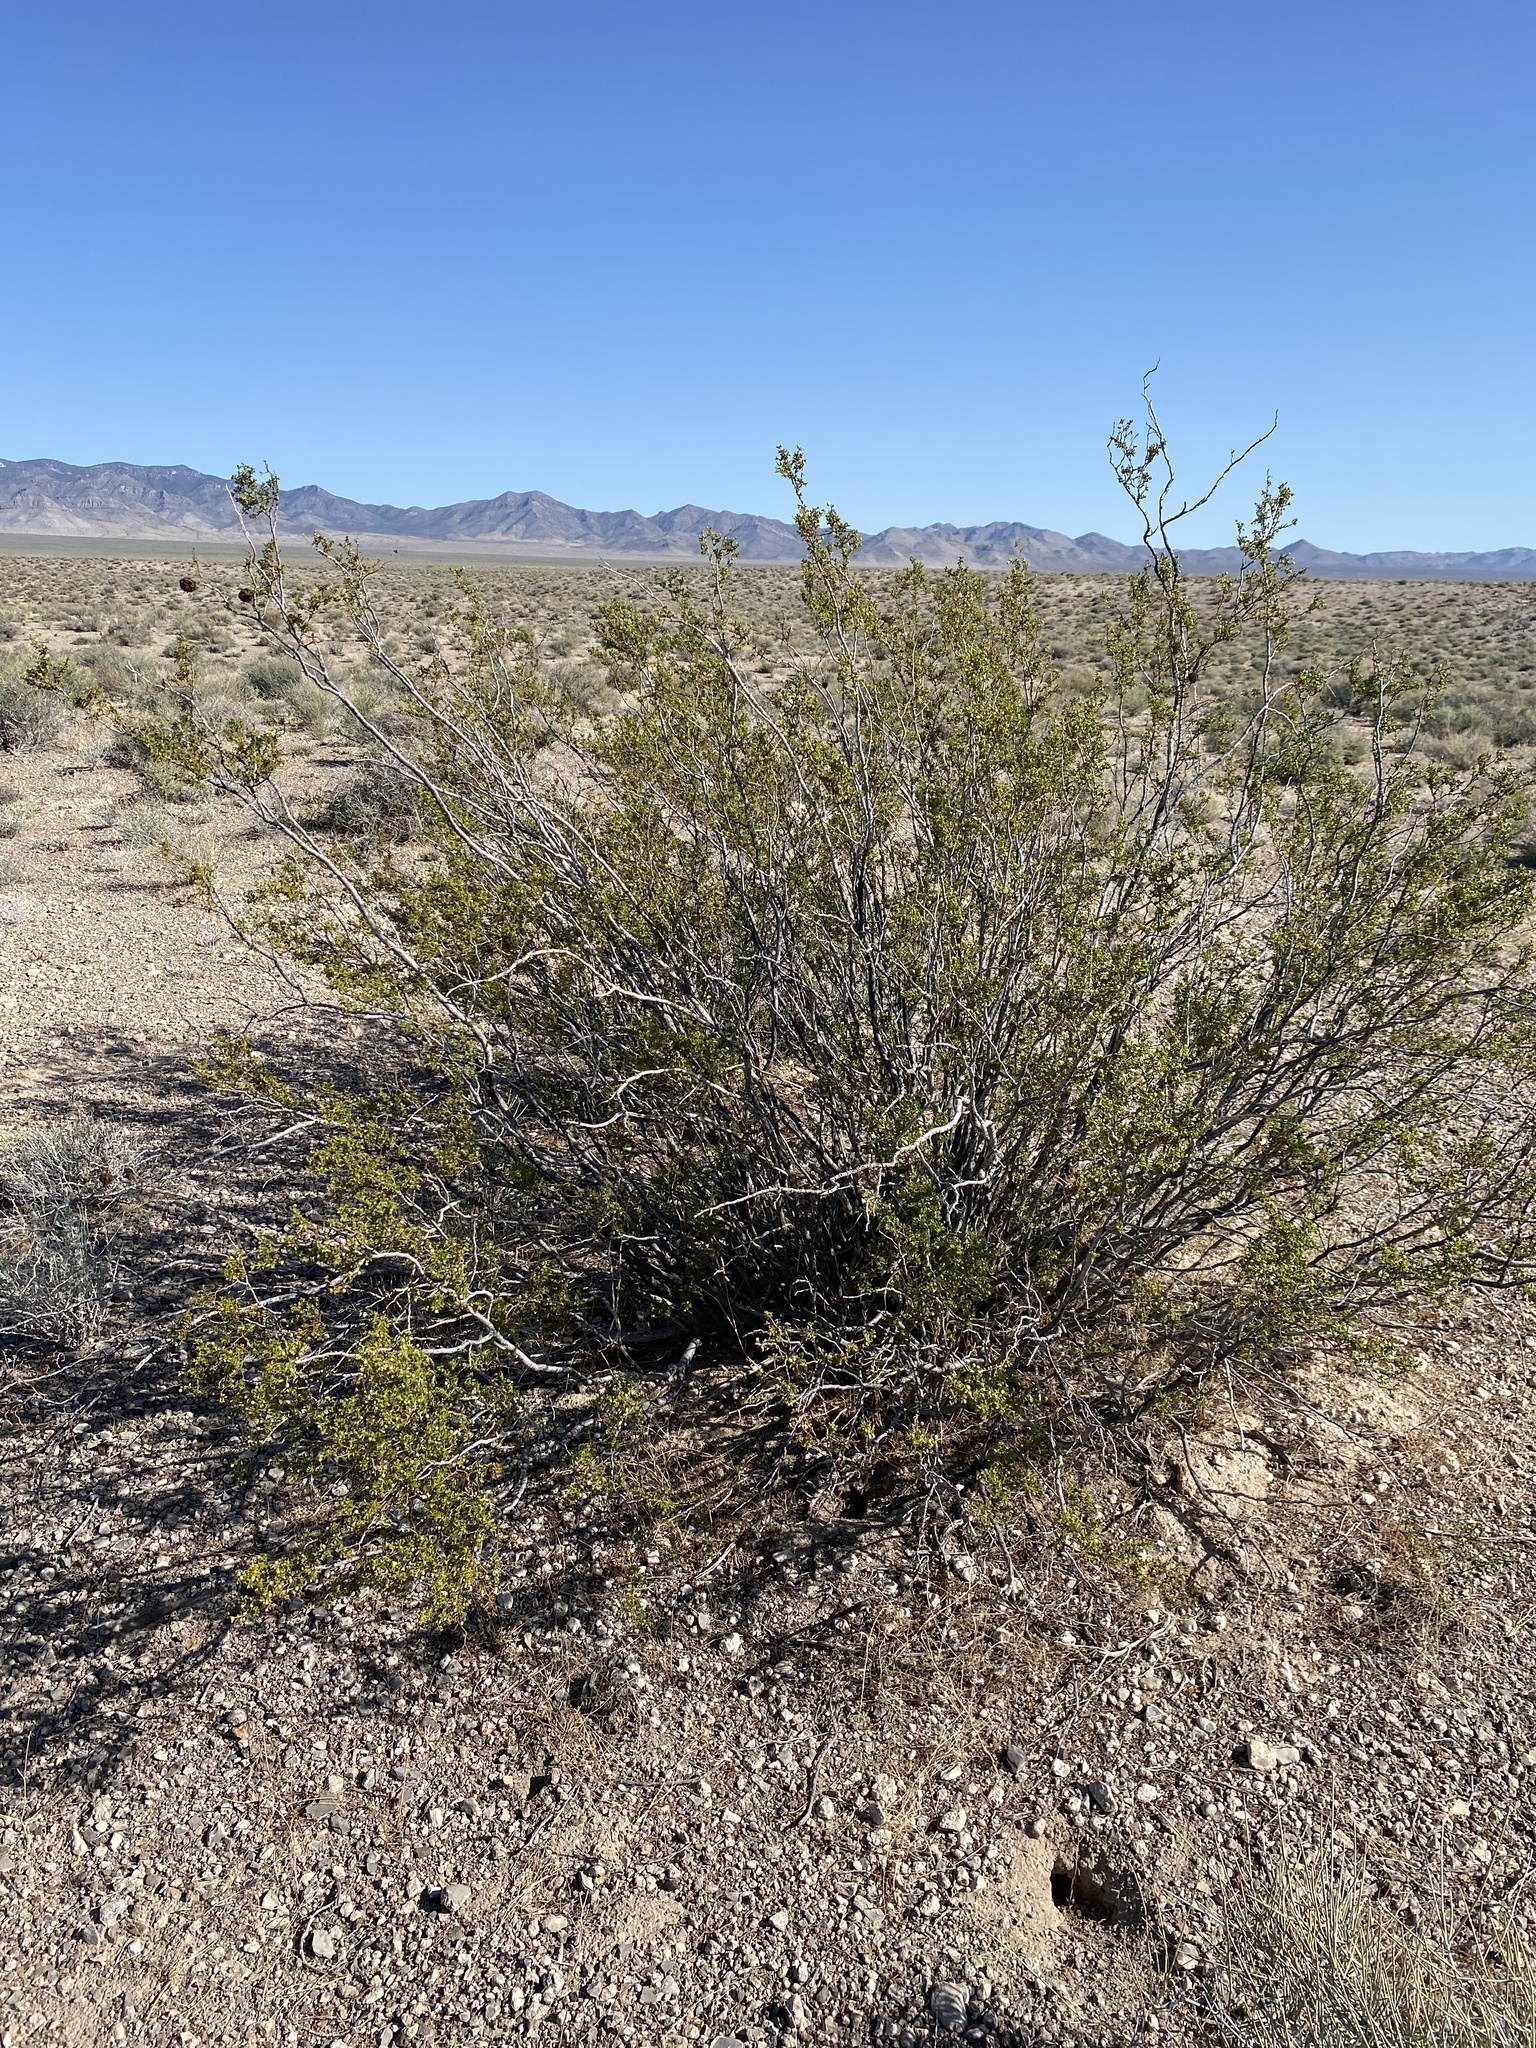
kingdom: Plantae
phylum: Tracheophyta
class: Magnoliopsida
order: Zygophyllales
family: Zygophyllaceae
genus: Larrea
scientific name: Larrea tridentata
